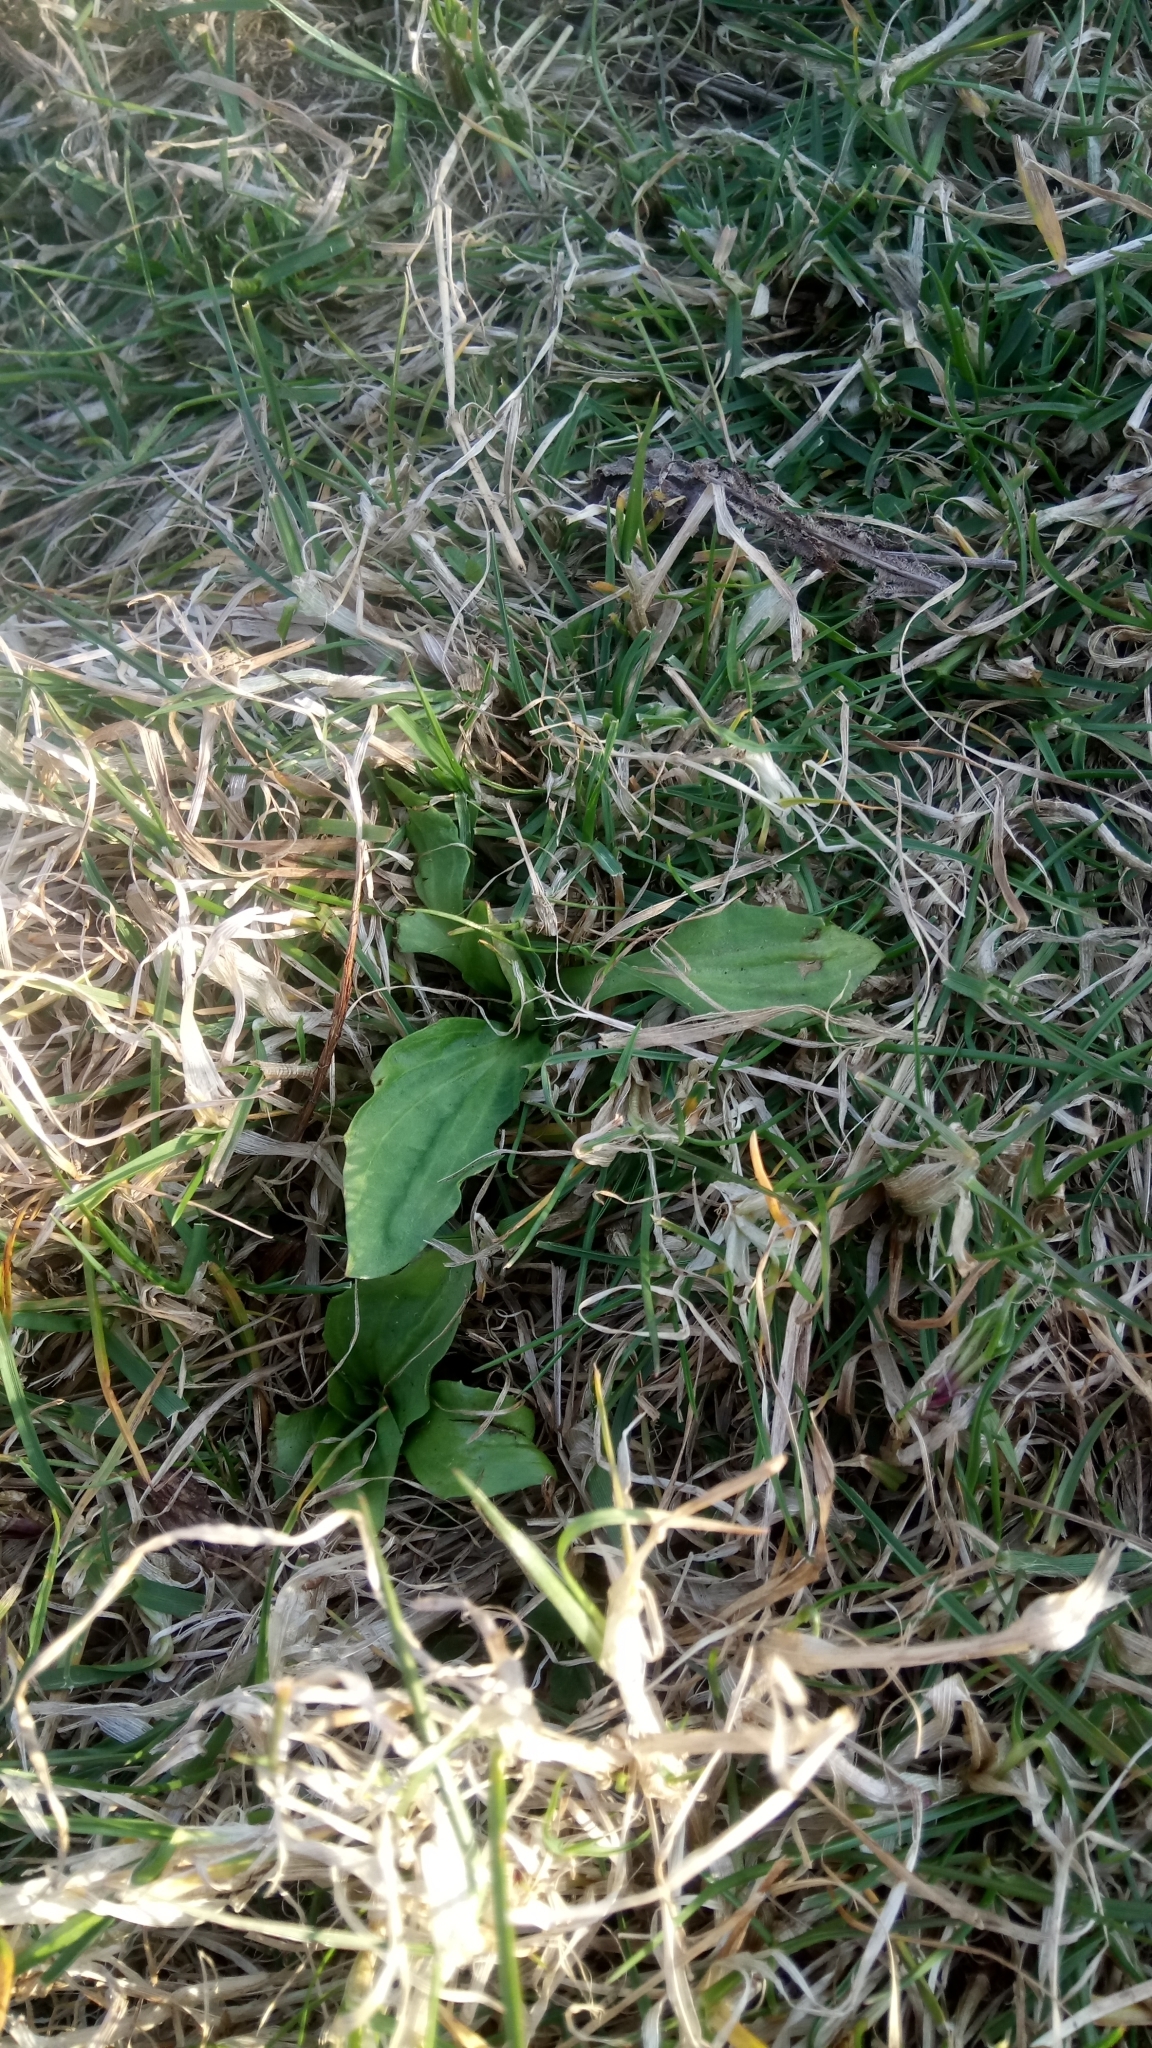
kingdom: Plantae
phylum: Tracheophyta
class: Magnoliopsida
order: Lamiales
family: Plantaginaceae
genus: Plantago
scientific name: Plantago major
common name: Common plantain
